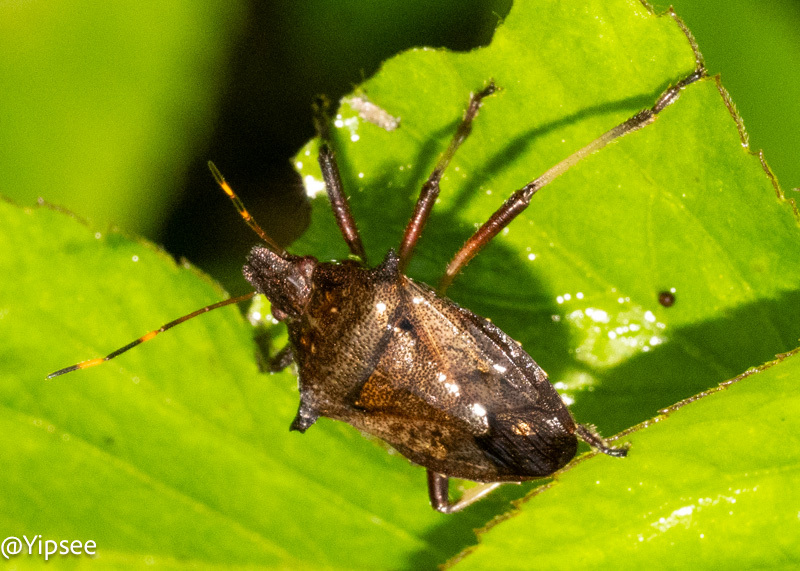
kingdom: Animalia
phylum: Arthropoda
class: Insecta
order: Hemiptera
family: Pentatomidae
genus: Picromerus
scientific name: Picromerus griseus
